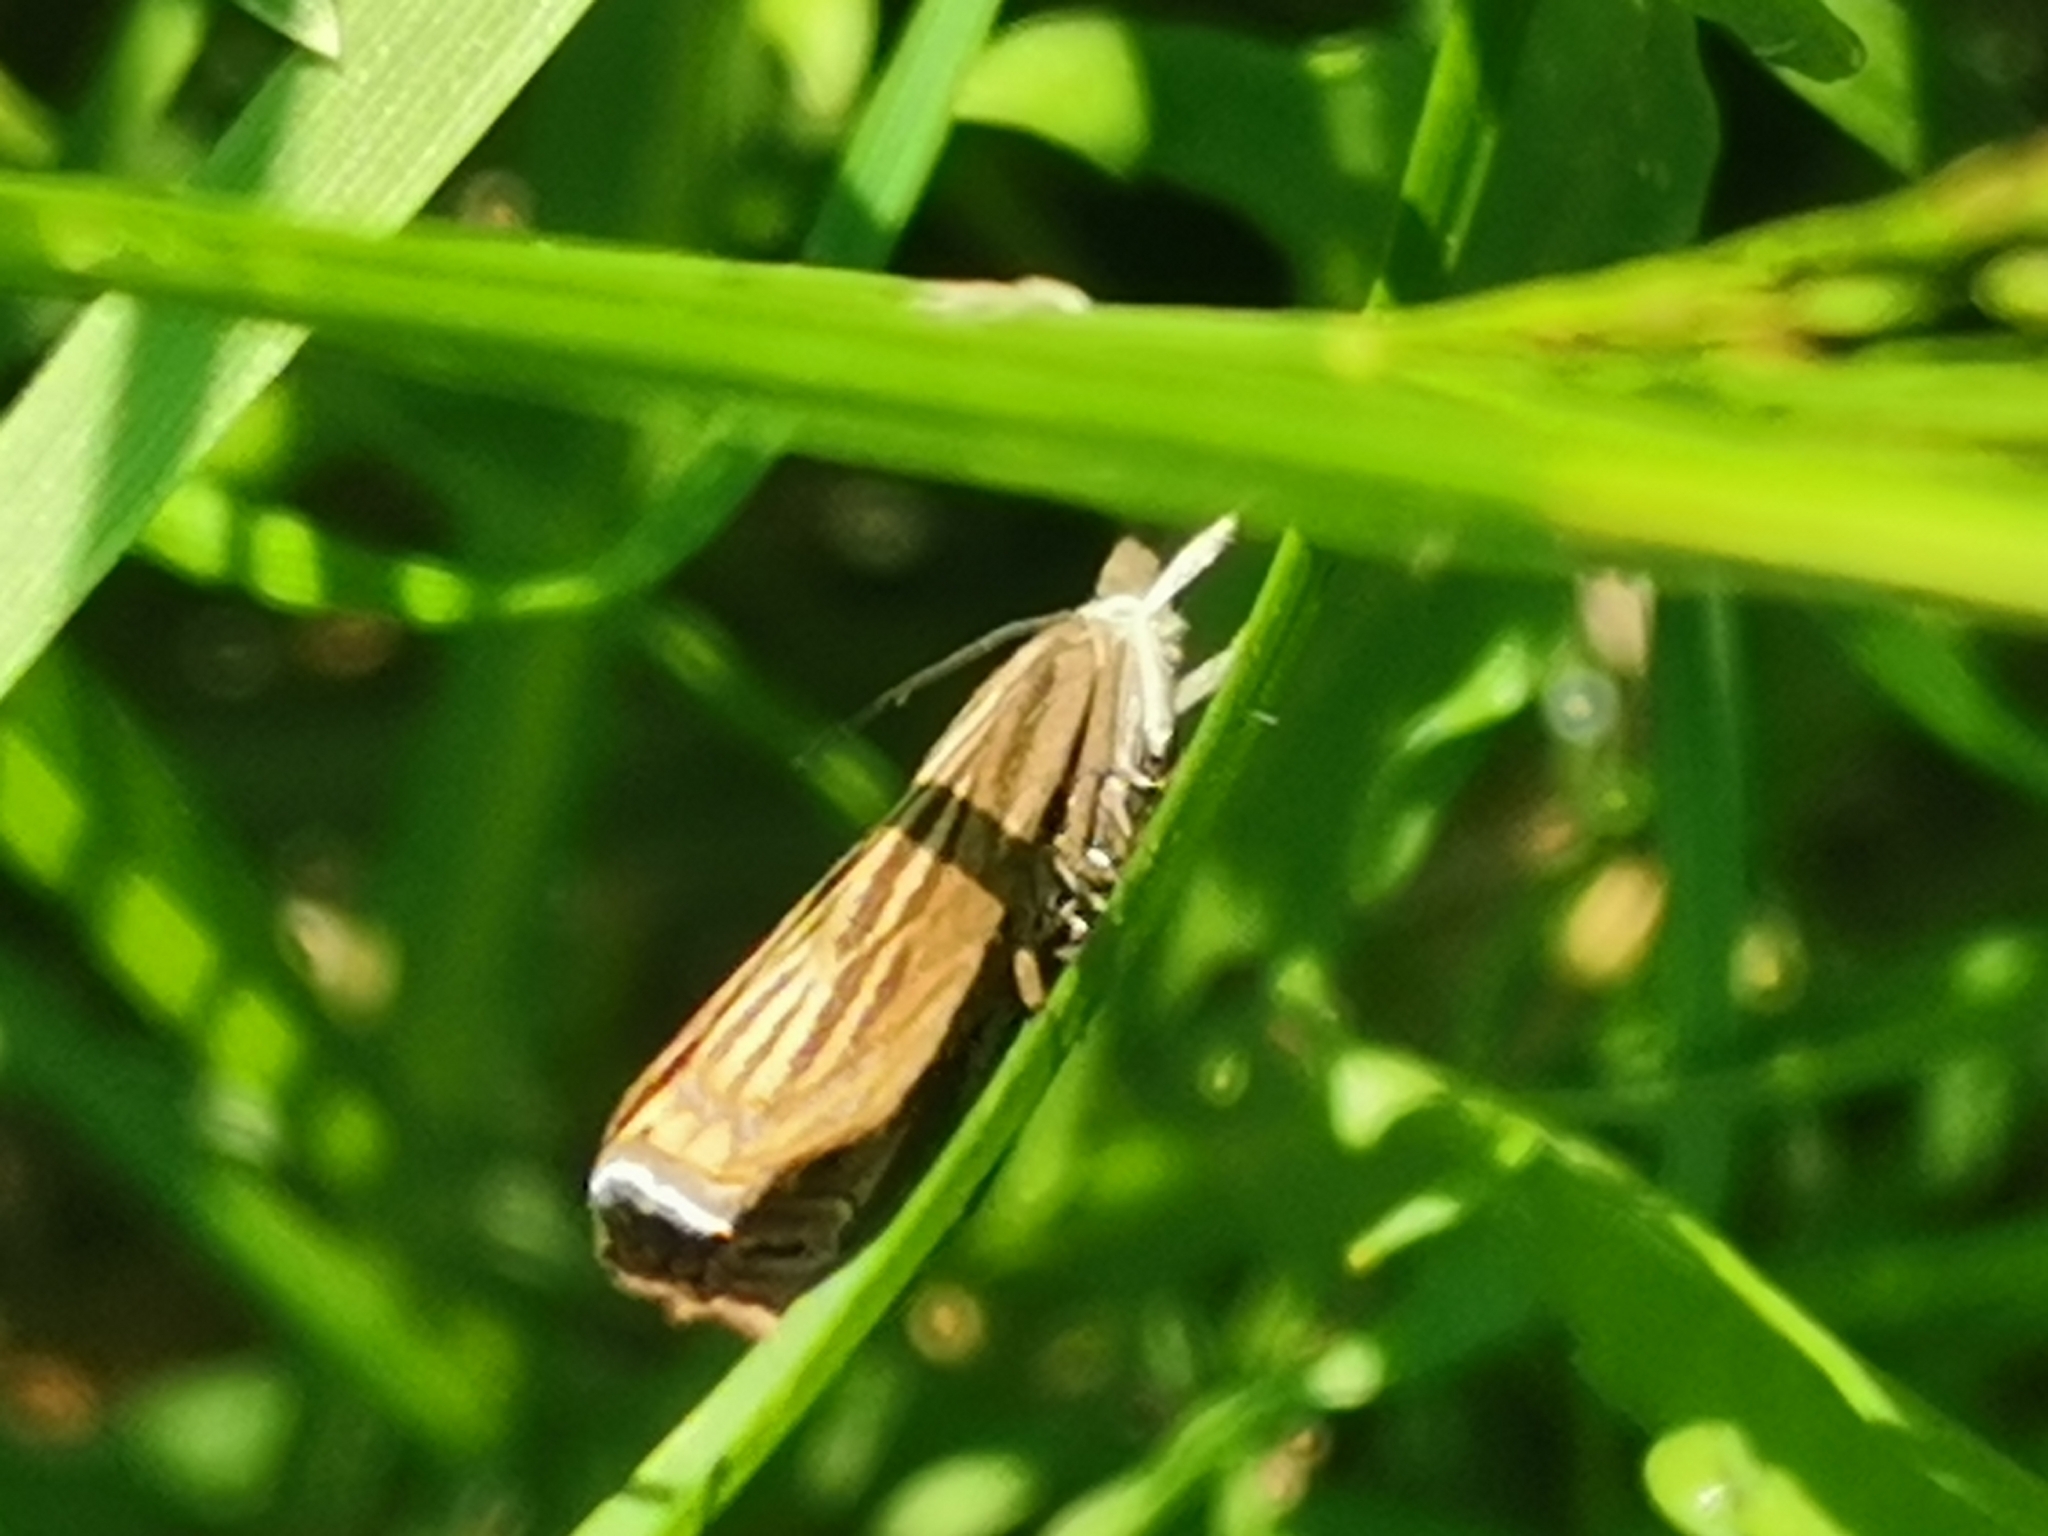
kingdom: Animalia
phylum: Arthropoda
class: Insecta
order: Lepidoptera
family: Crambidae
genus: Chrysoteuchia
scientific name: Chrysoteuchia culmella
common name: Garden grass-veneer
